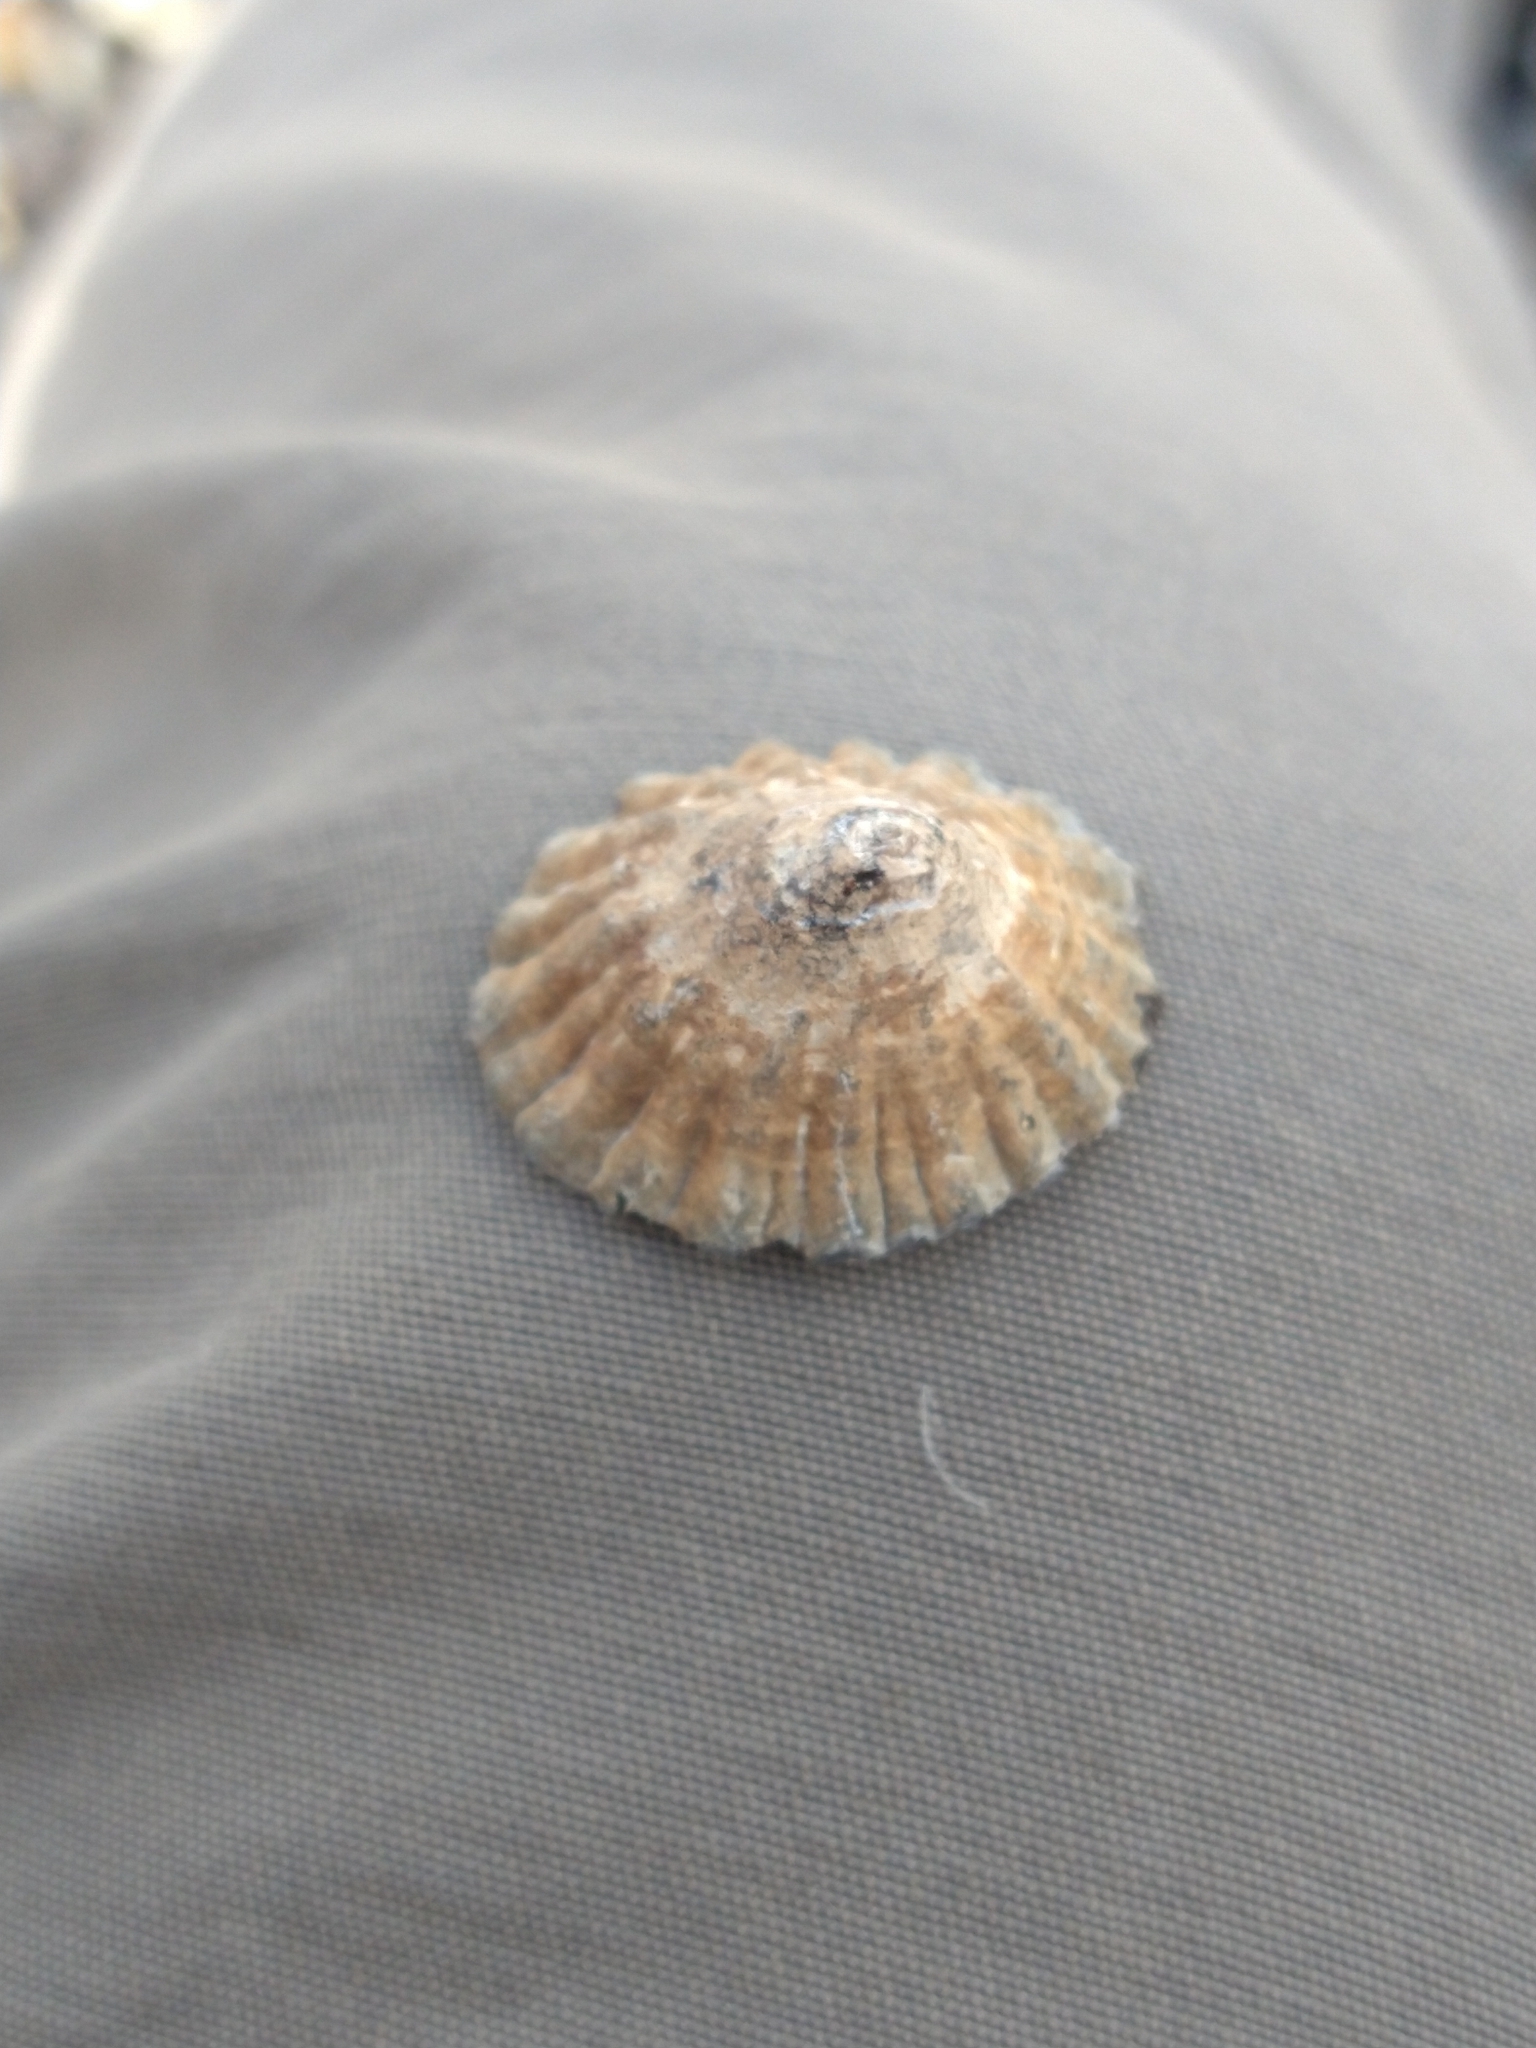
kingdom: Animalia
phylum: Mollusca
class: Gastropoda
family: Nacellidae
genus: Nacella
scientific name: Nacella magellanica
